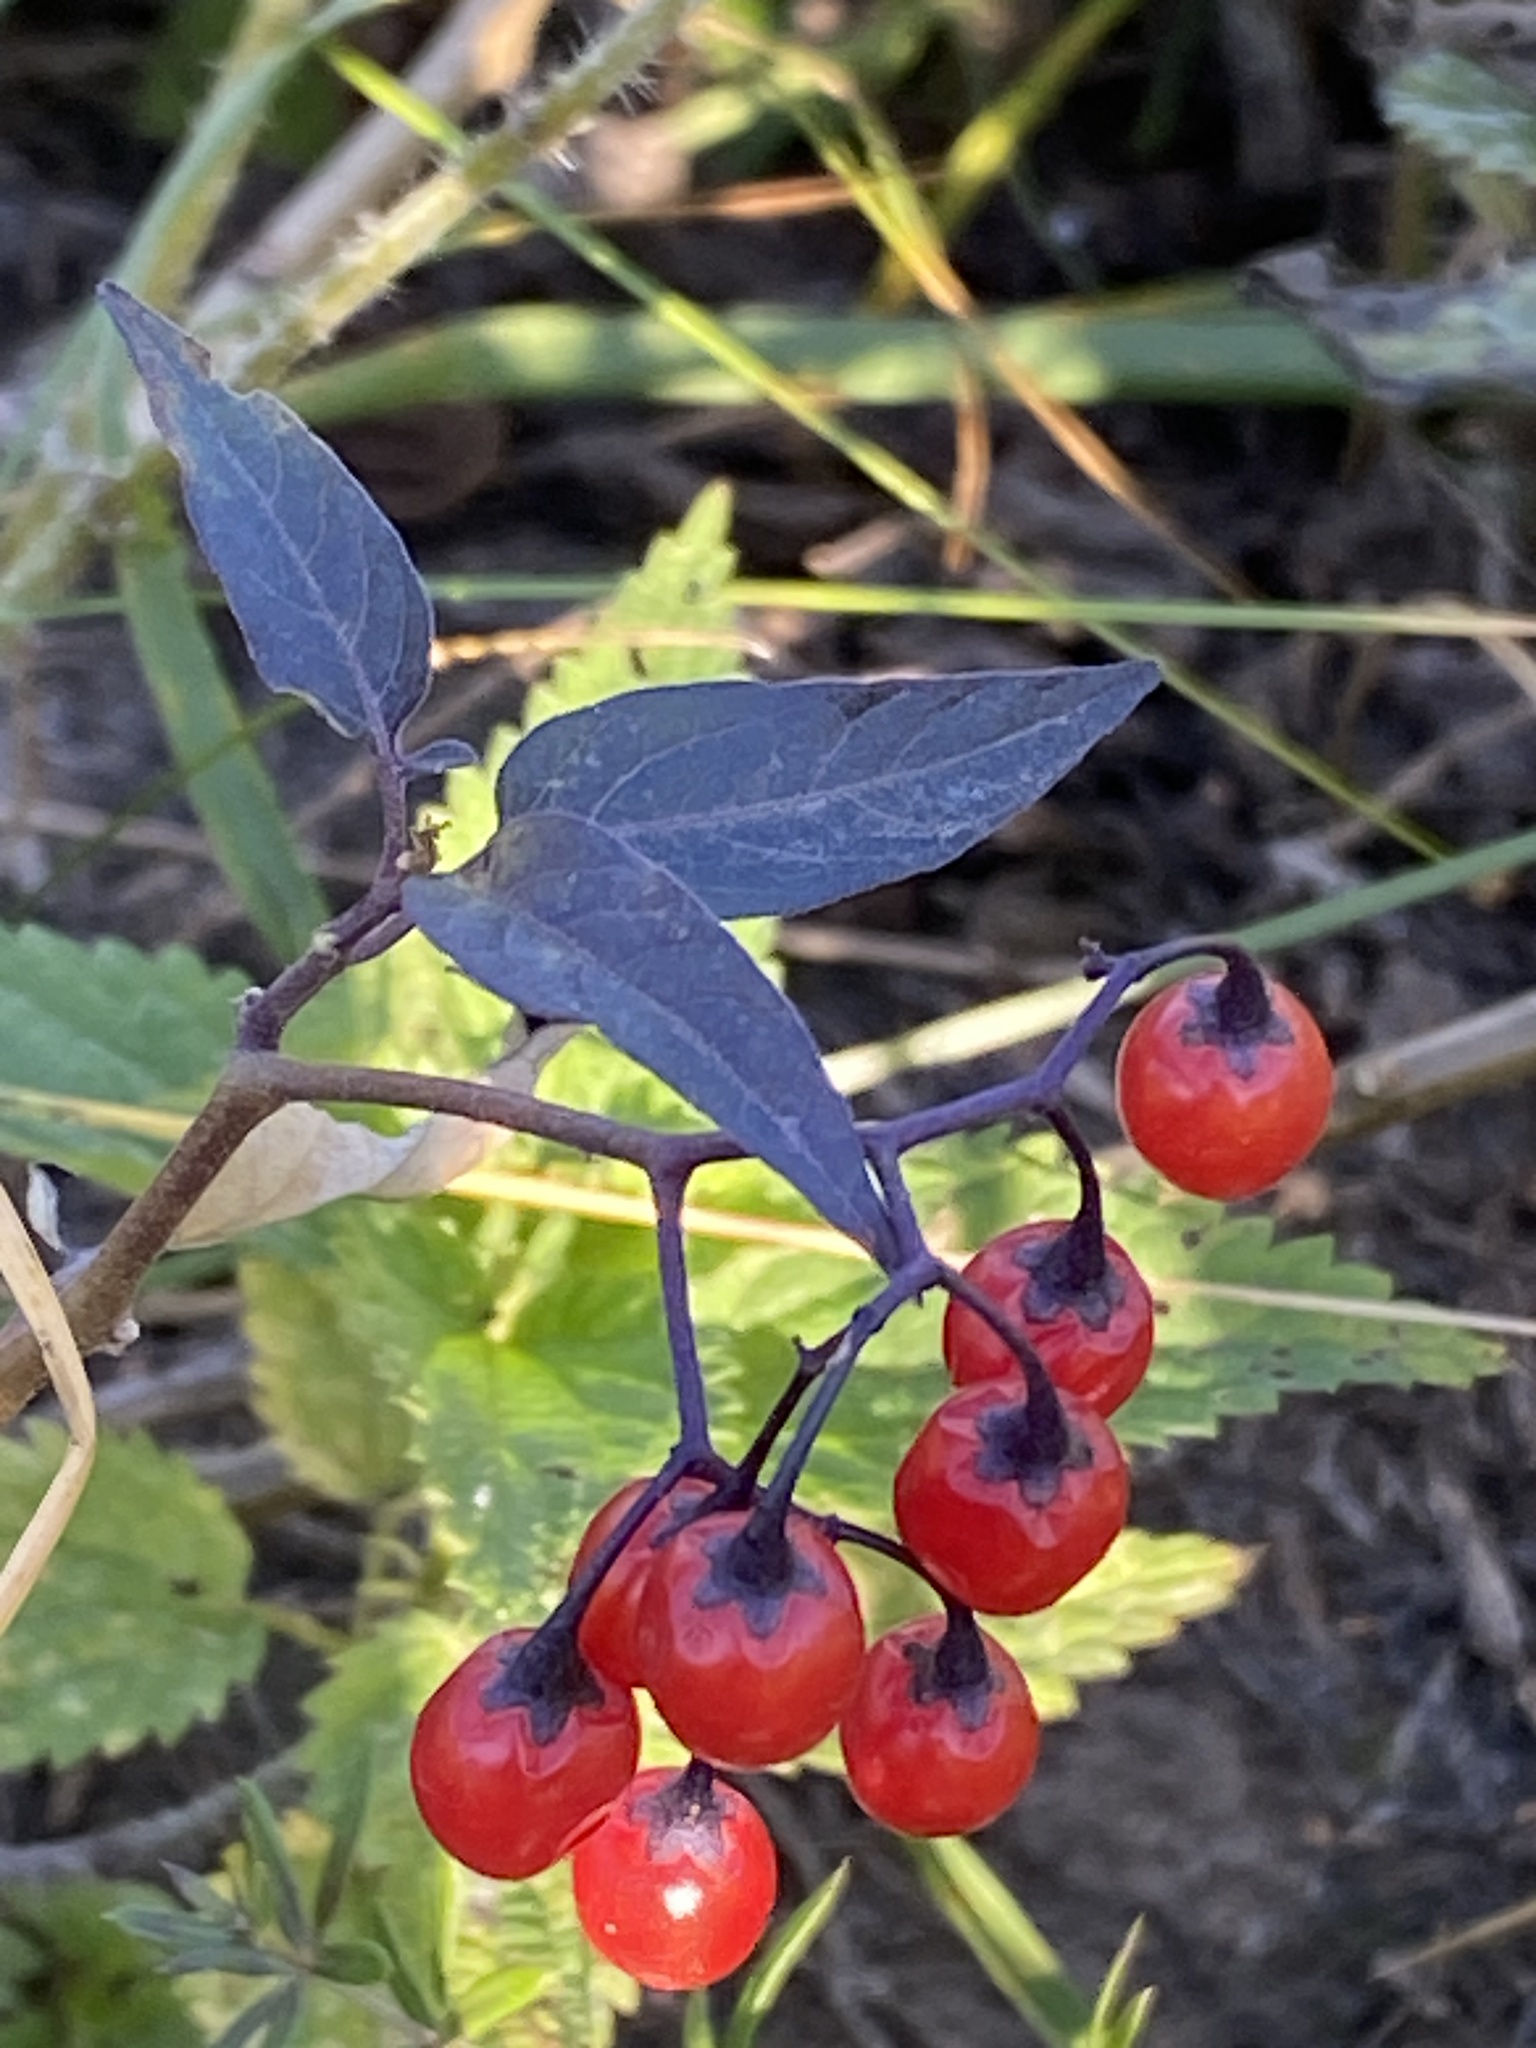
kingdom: Plantae
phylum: Tracheophyta
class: Magnoliopsida
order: Solanales
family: Solanaceae
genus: Solanum
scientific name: Solanum dulcamara
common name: Climbing nightshade
